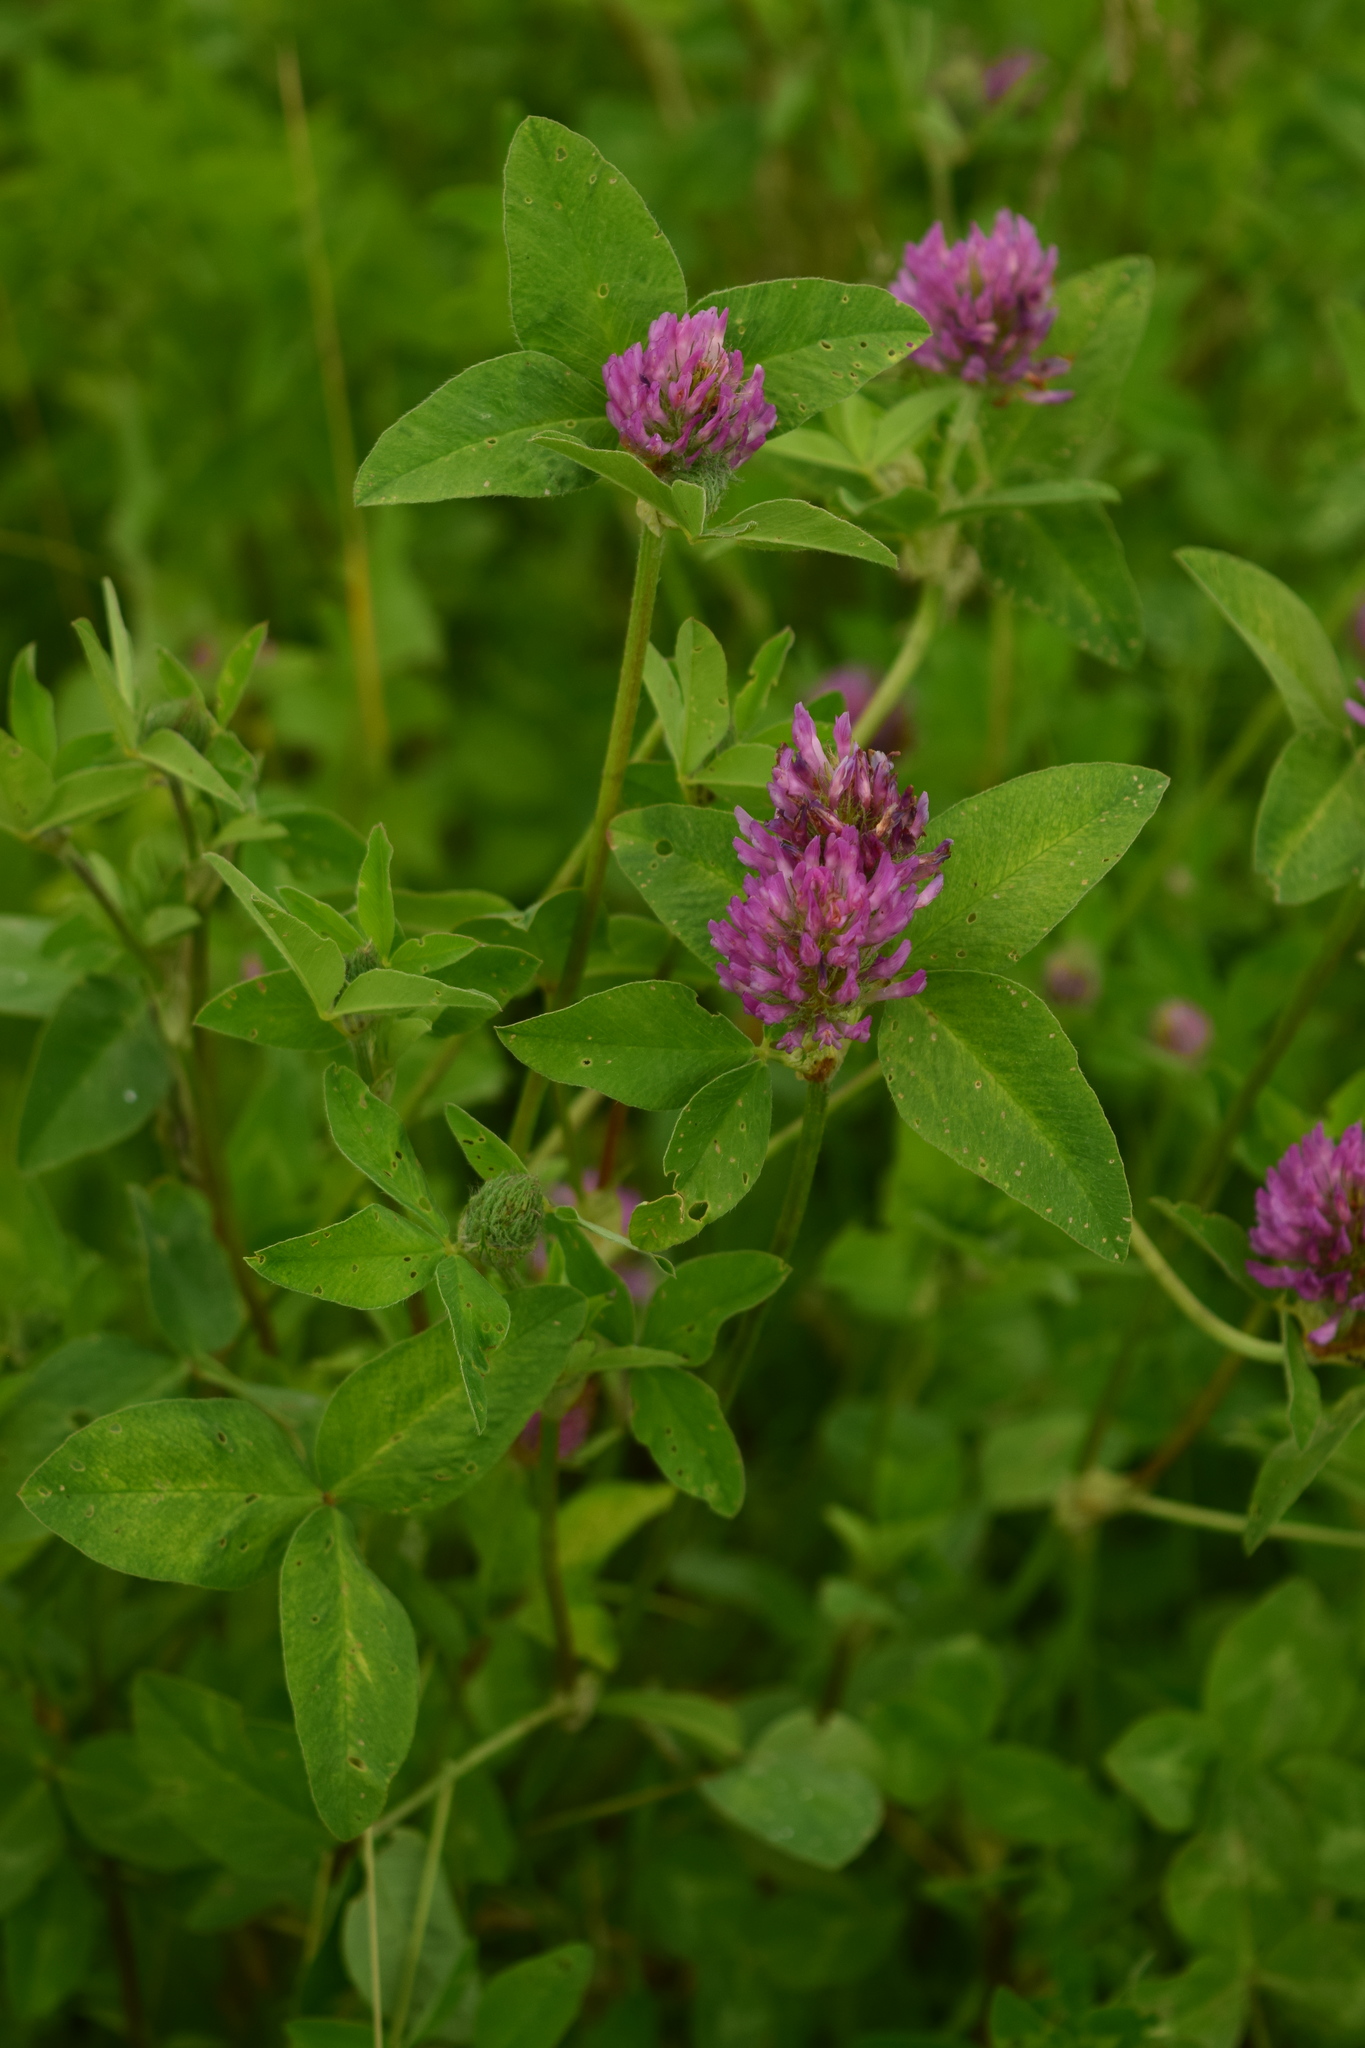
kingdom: Plantae
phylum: Tracheophyta
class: Magnoliopsida
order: Fabales
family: Fabaceae
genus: Trifolium
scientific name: Trifolium pratense
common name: Red clover
